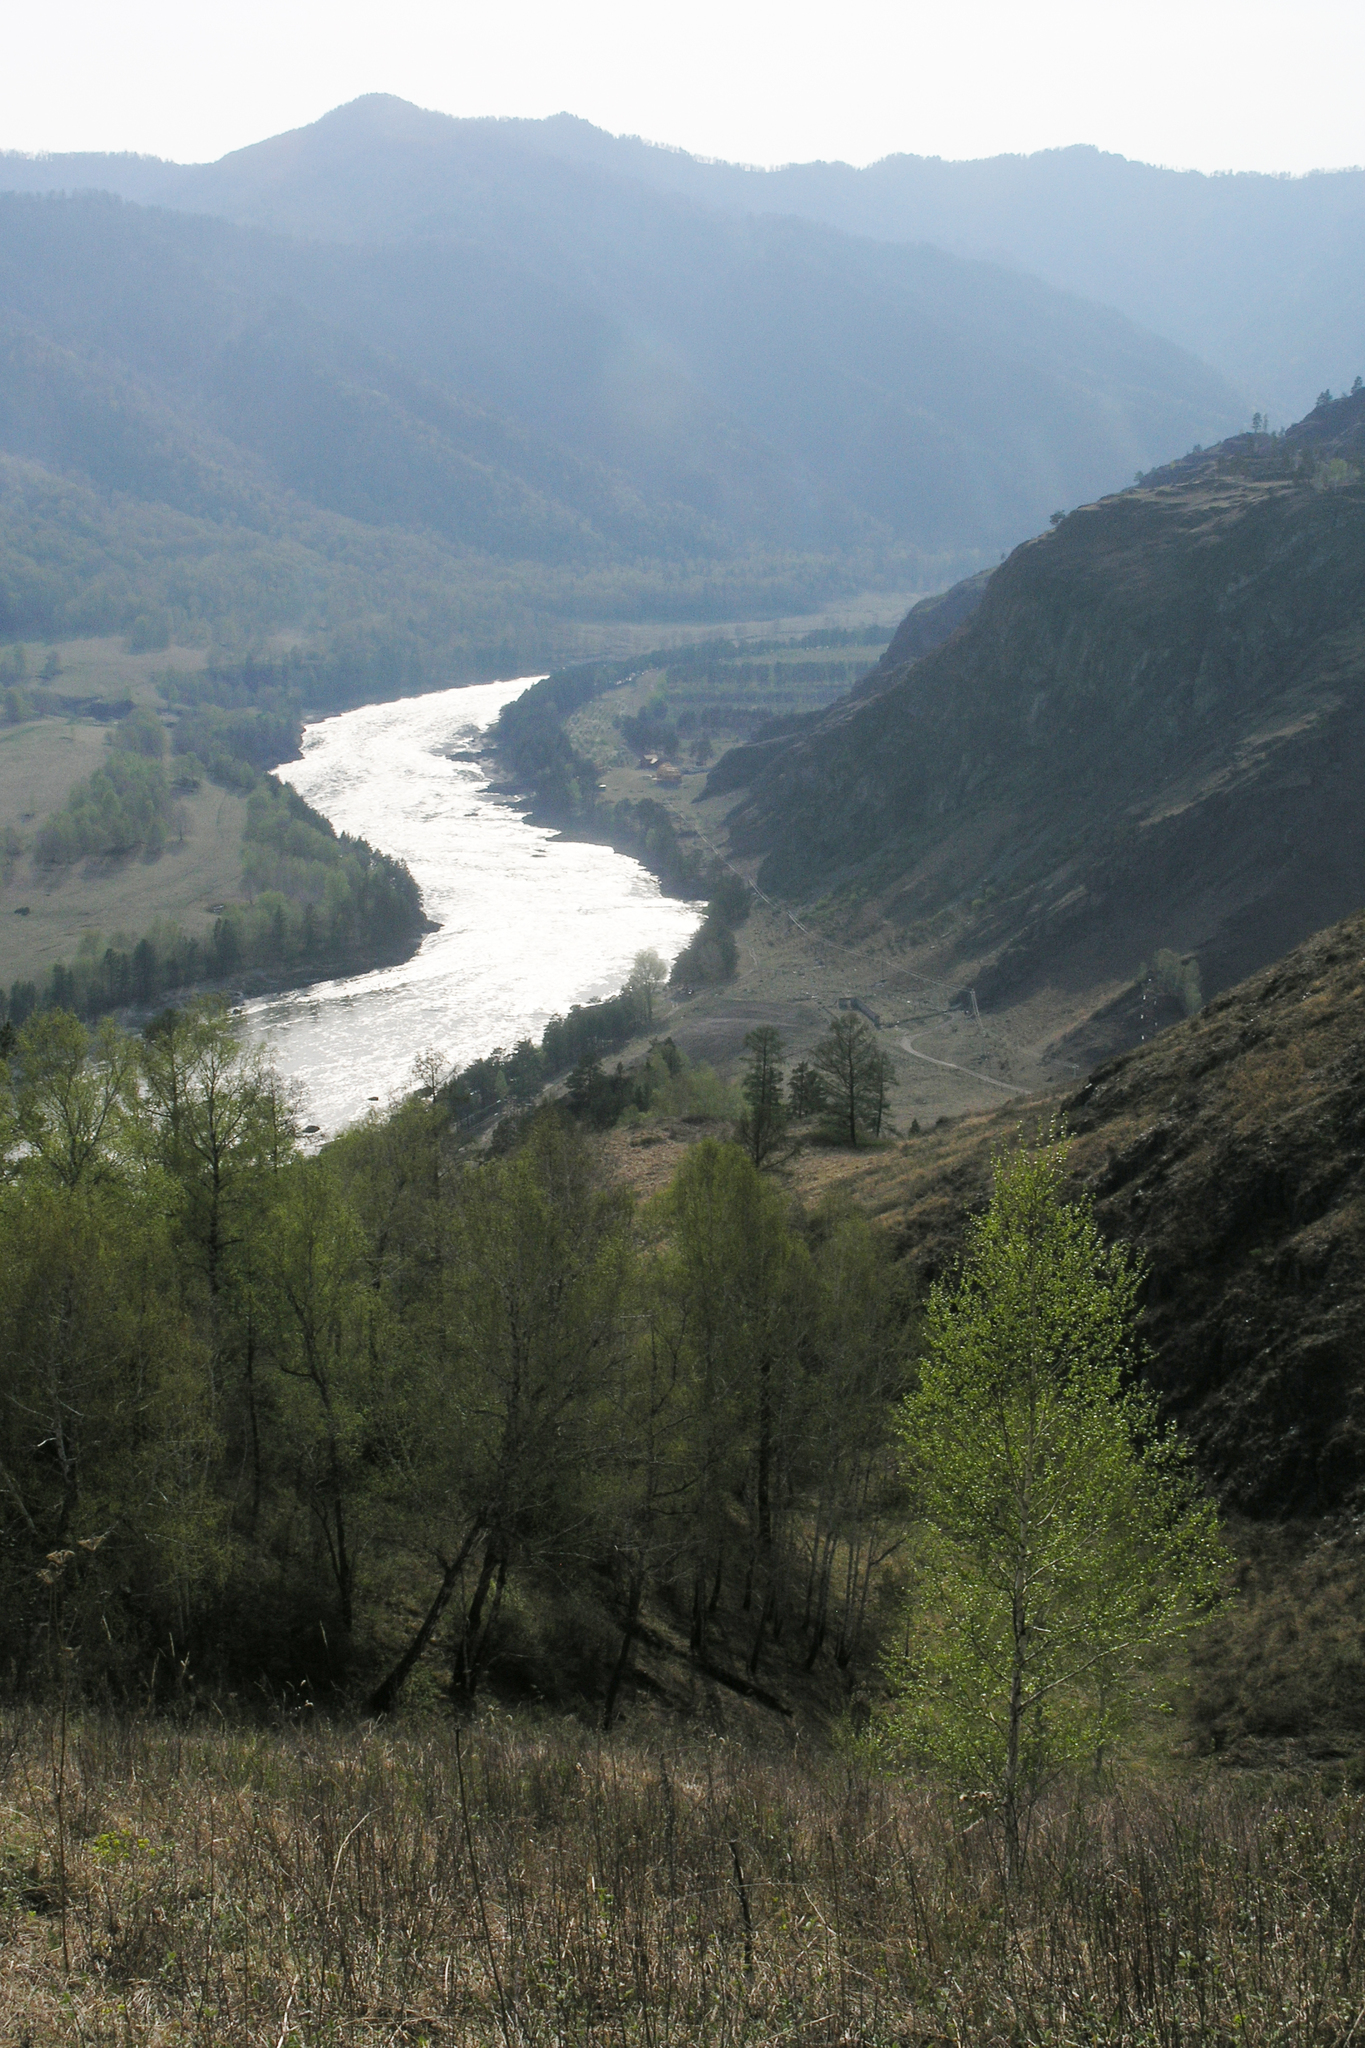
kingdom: Plantae
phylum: Tracheophyta
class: Magnoliopsida
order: Fagales
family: Betulaceae
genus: Betula
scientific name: Betula pendula
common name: Silver birch
